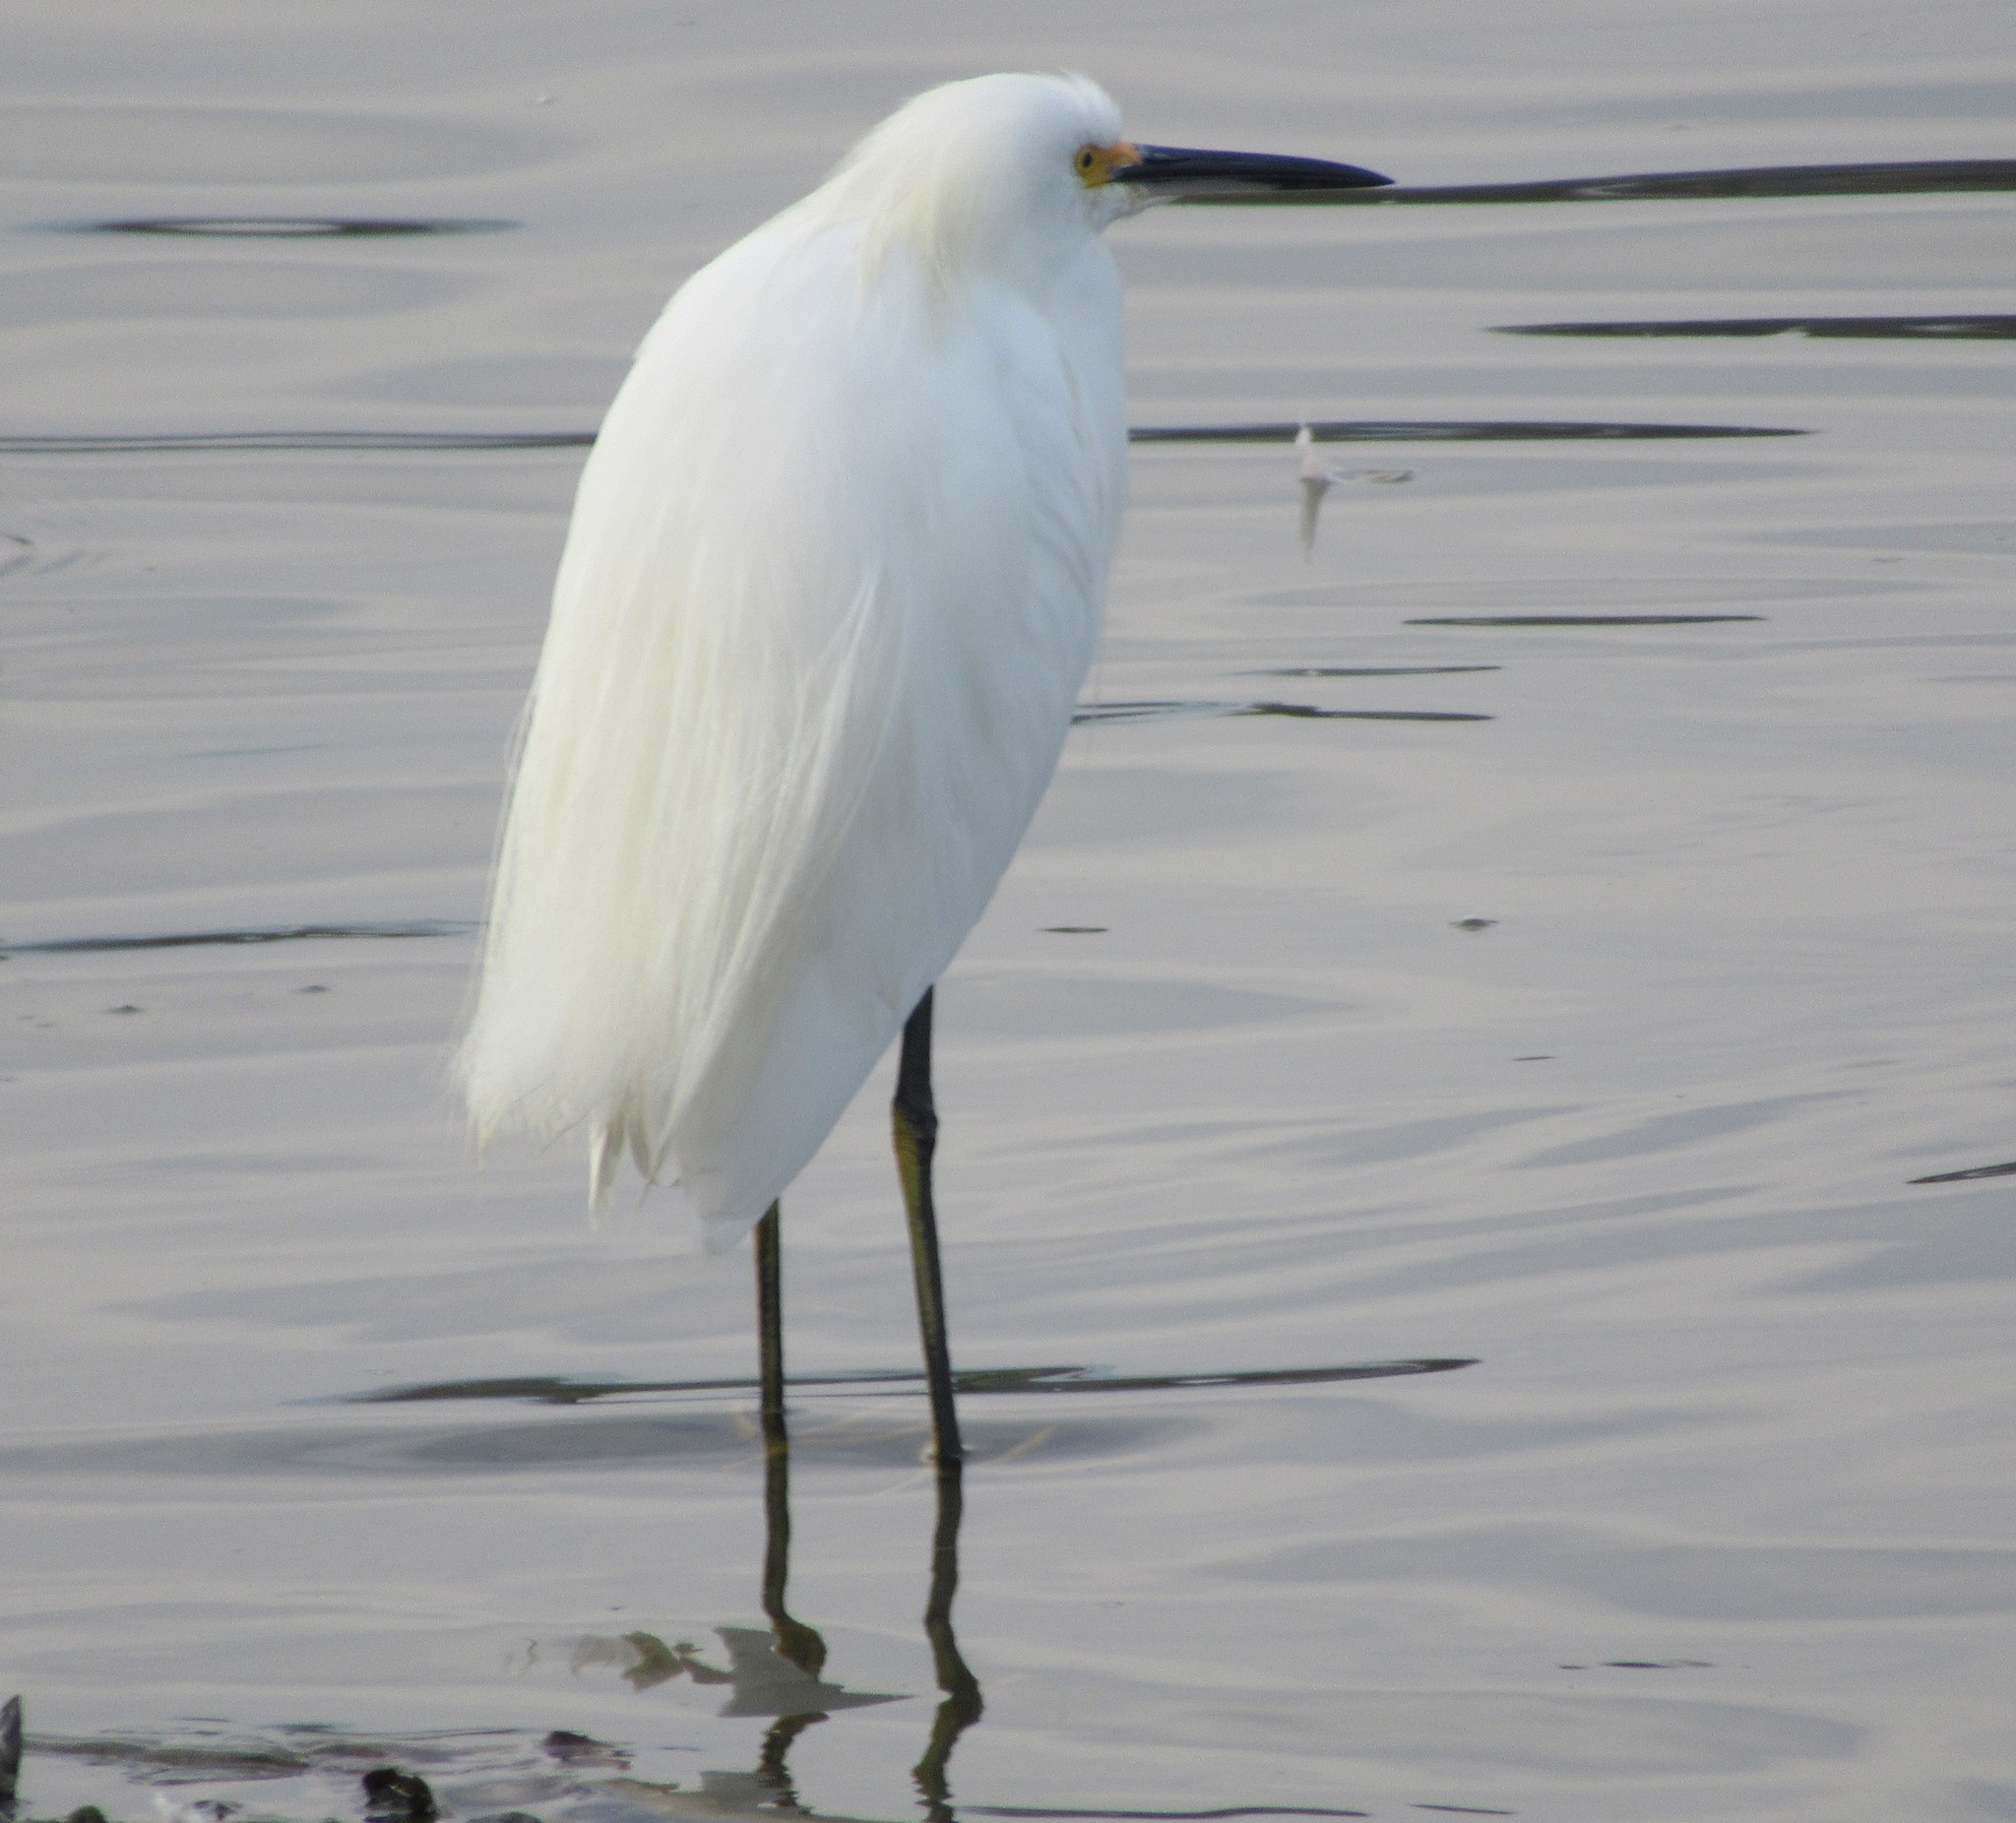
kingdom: Animalia
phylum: Chordata
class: Aves
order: Pelecaniformes
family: Ardeidae
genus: Egretta
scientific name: Egretta thula
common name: Snowy egret
